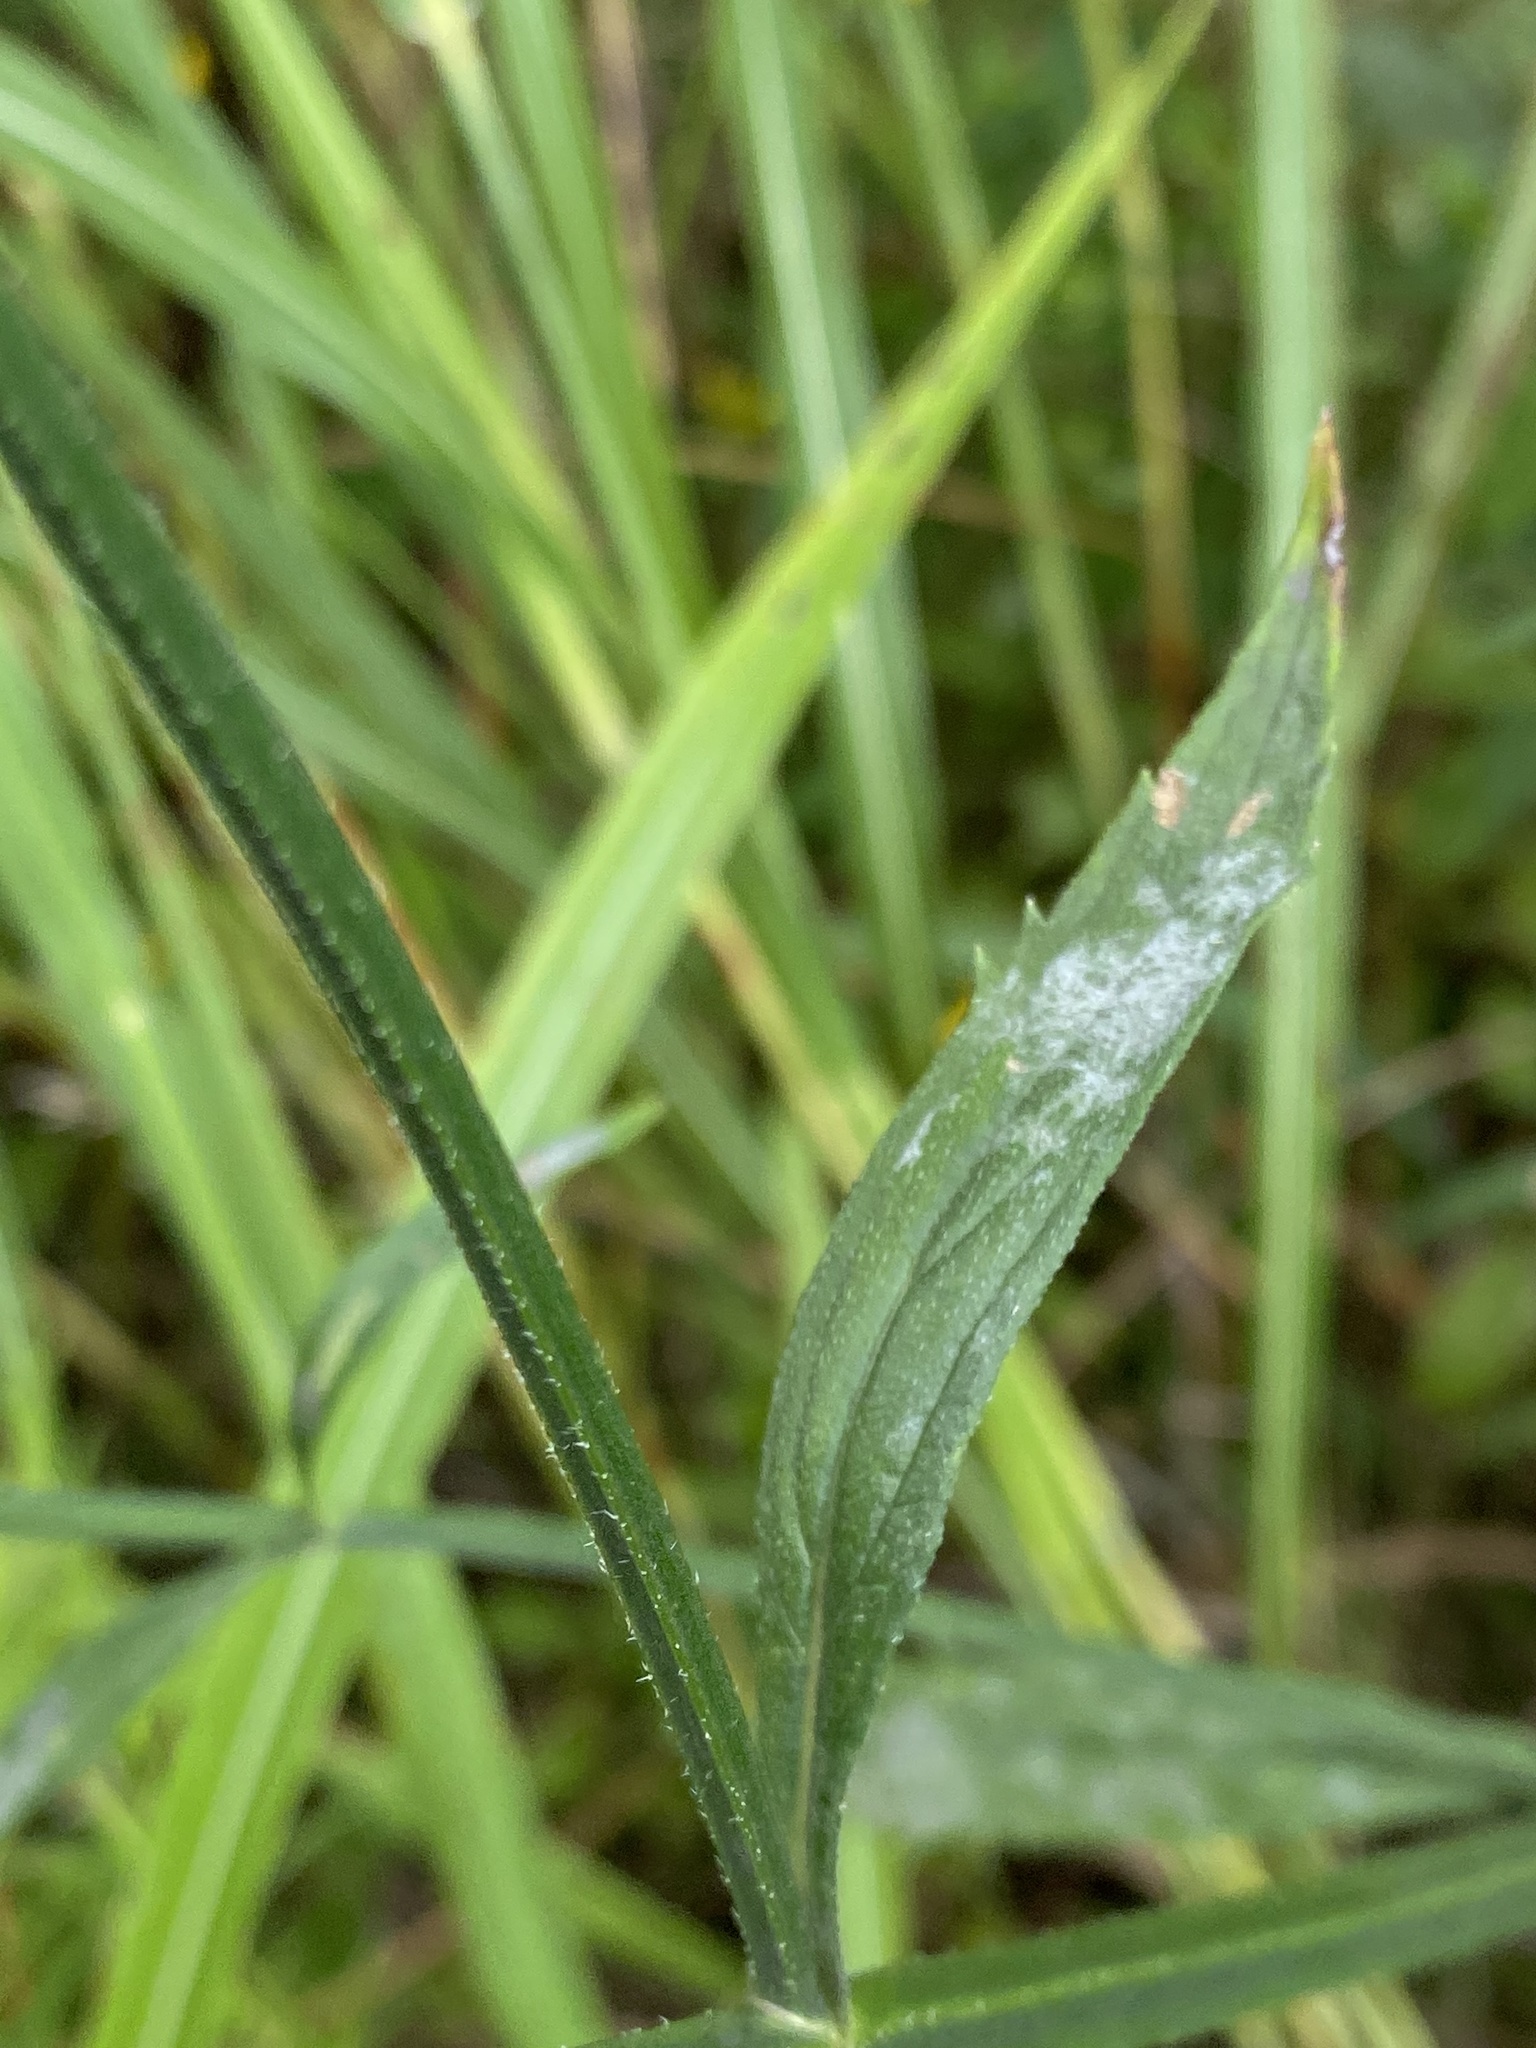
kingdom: Plantae
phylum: Tracheophyta
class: Magnoliopsida
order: Lamiales
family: Verbenaceae
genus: Verbena
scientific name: Verbena brasiliensis
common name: Brazilian vervain
